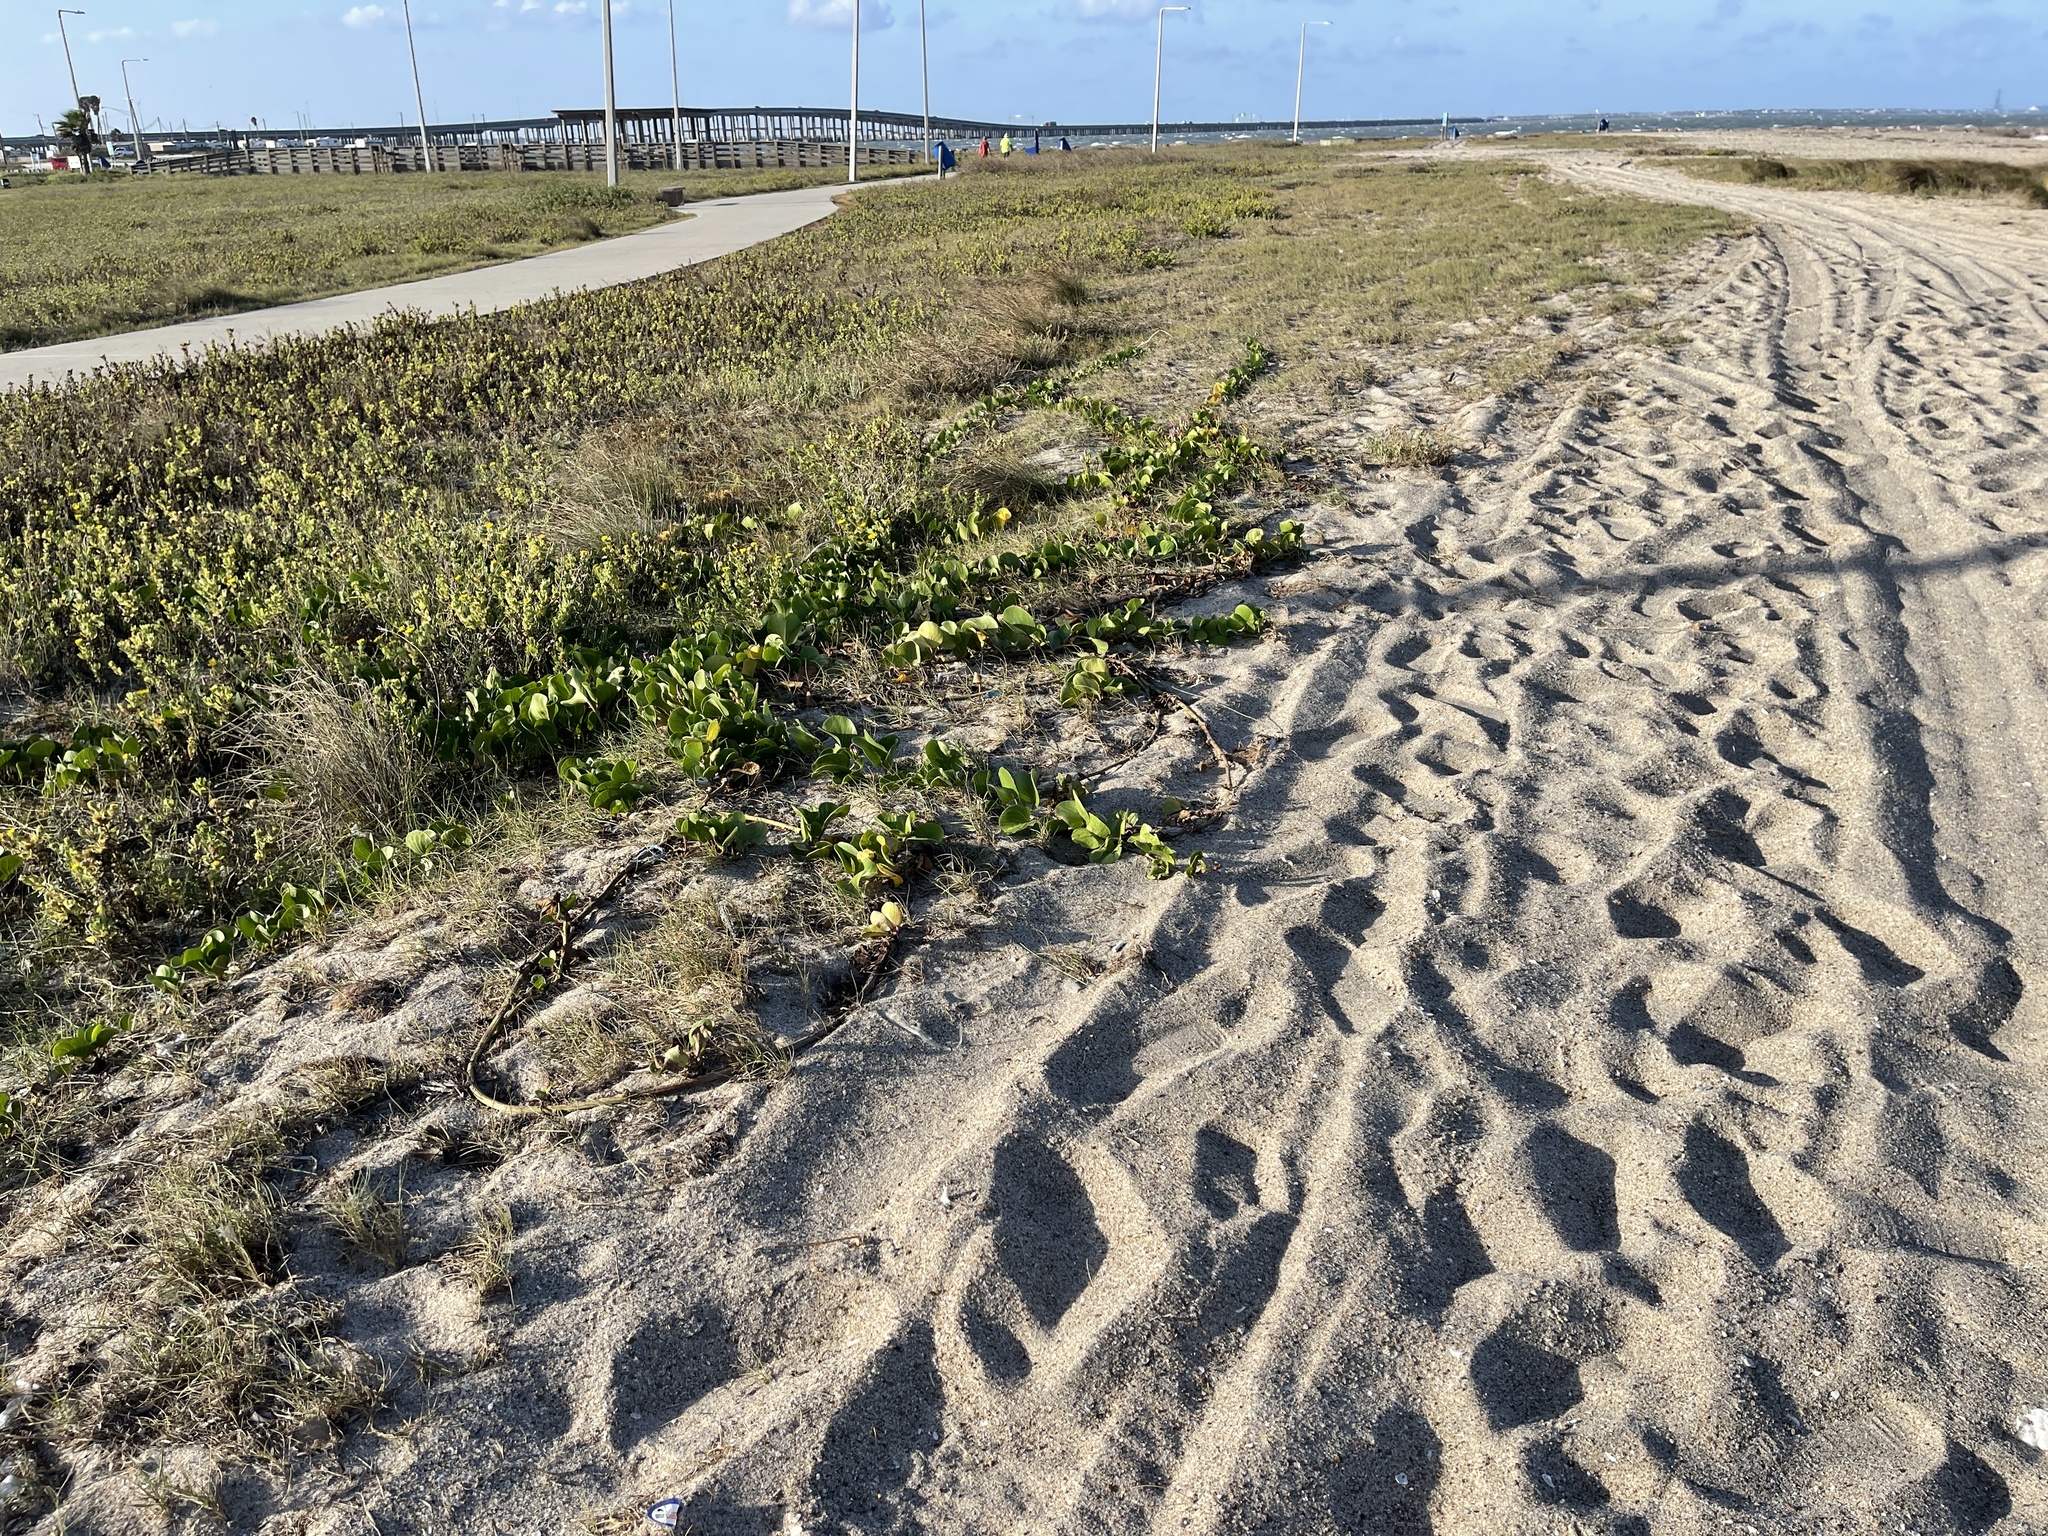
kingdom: Plantae
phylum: Tracheophyta
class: Magnoliopsida
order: Solanales
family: Convolvulaceae
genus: Ipomoea
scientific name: Ipomoea pes-caprae
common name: Beach morning glory
